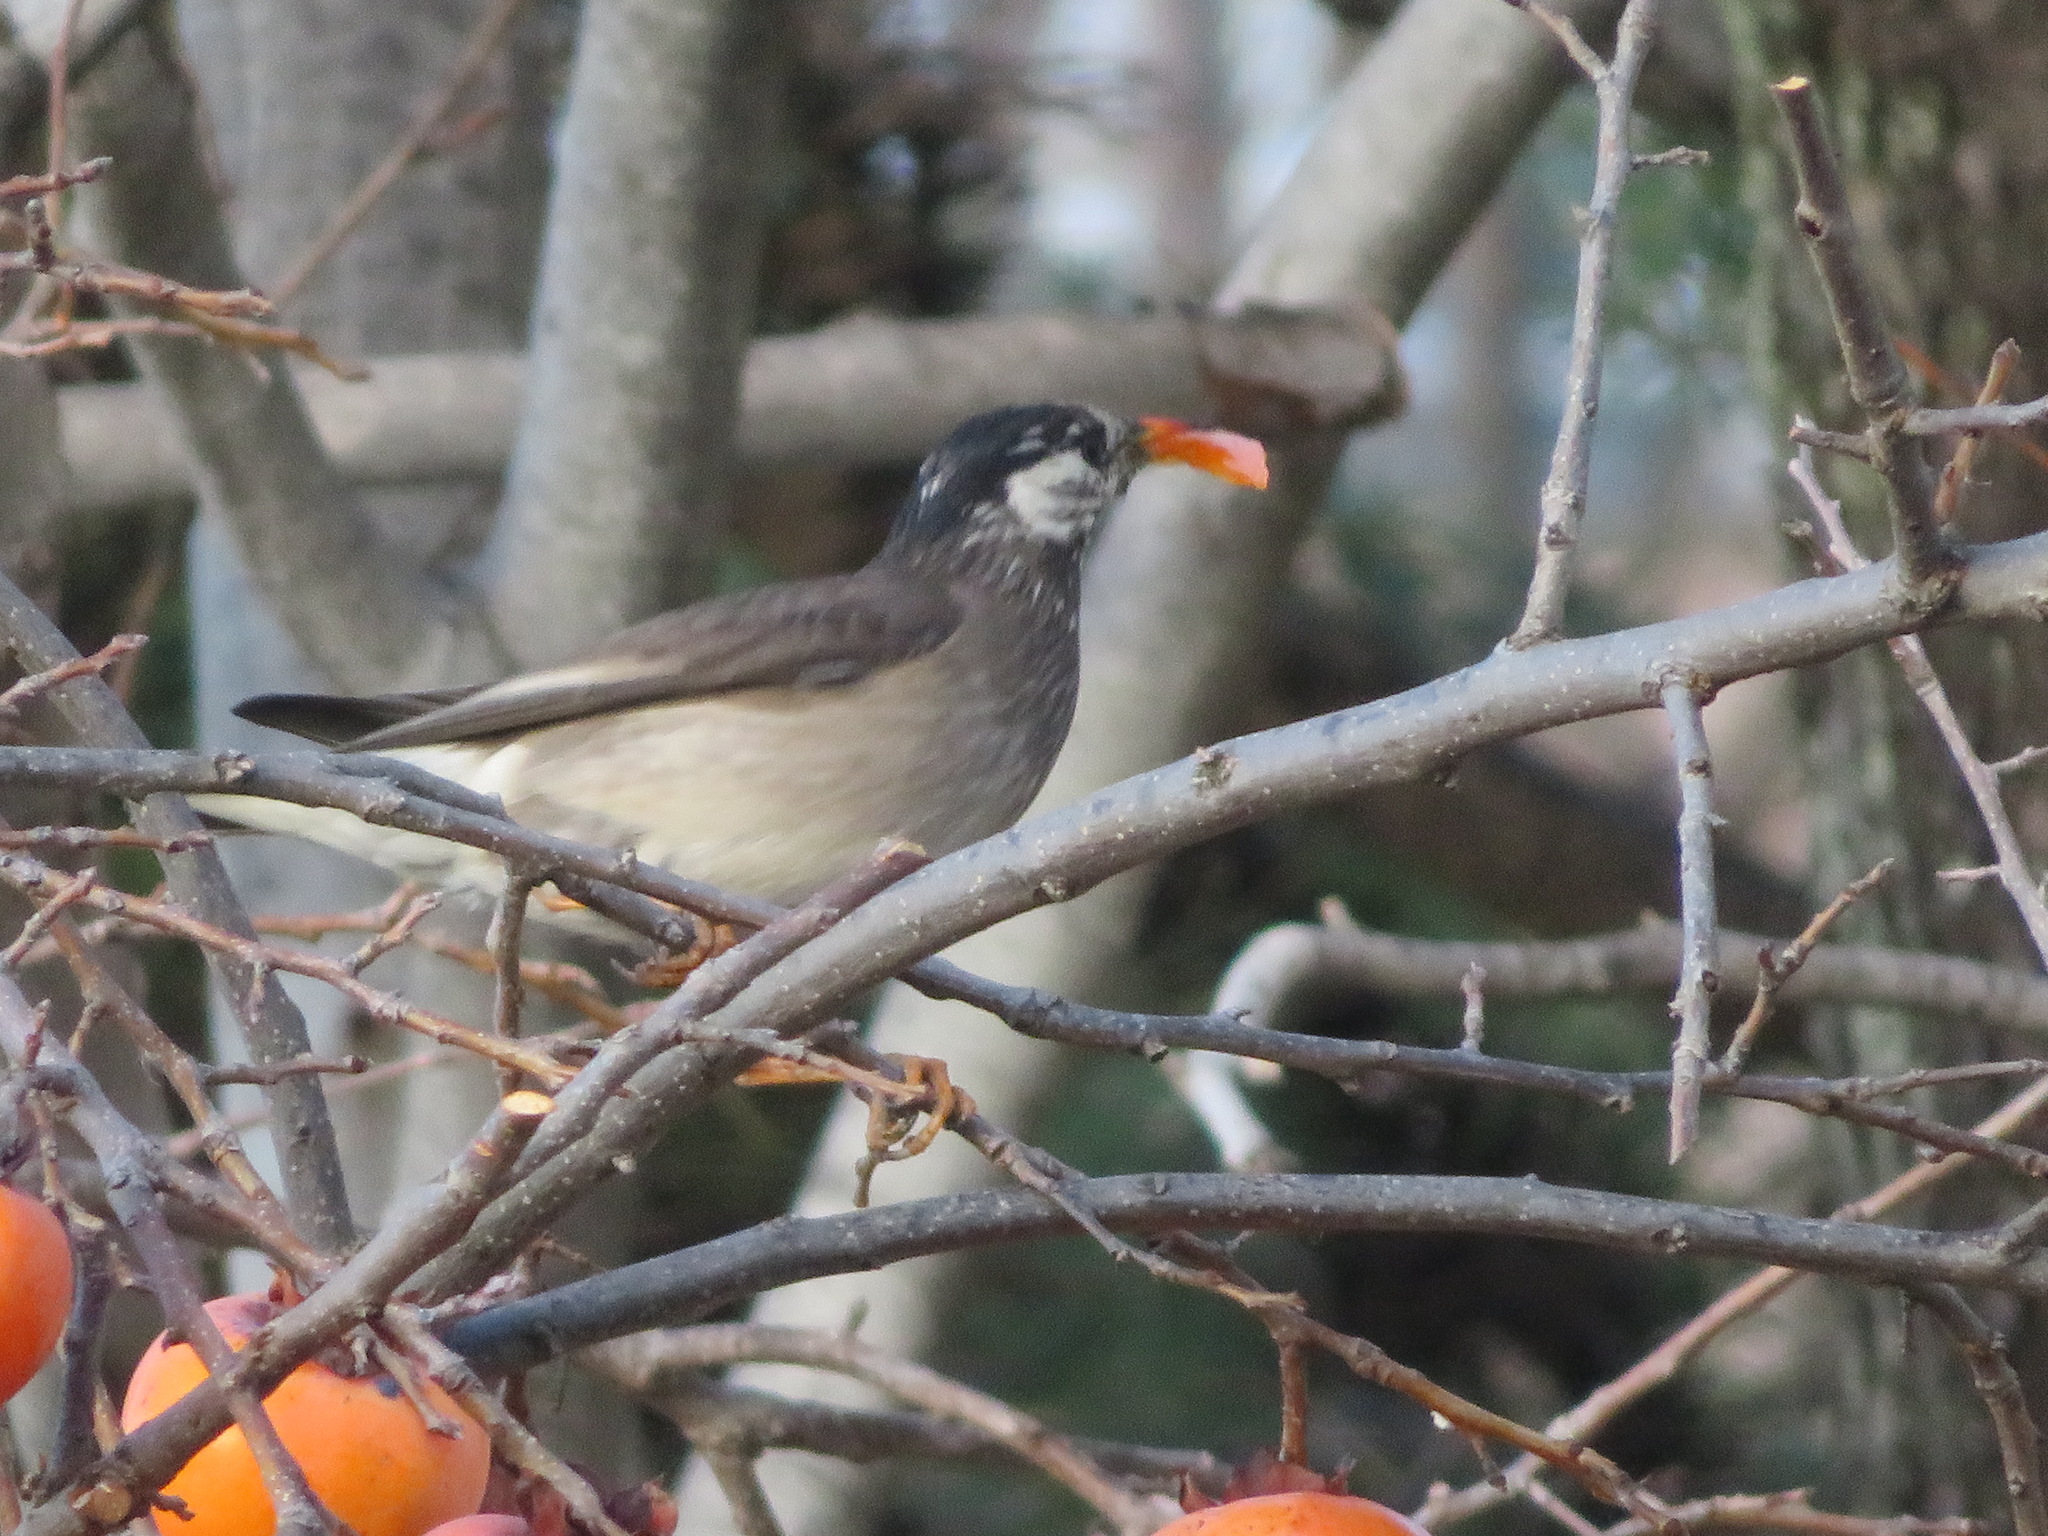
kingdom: Animalia
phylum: Chordata
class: Aves
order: Passeriformes
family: Sturnidae
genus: Spodiopsar
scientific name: Spodiopsar cineraceus
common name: White-cheeked starling
